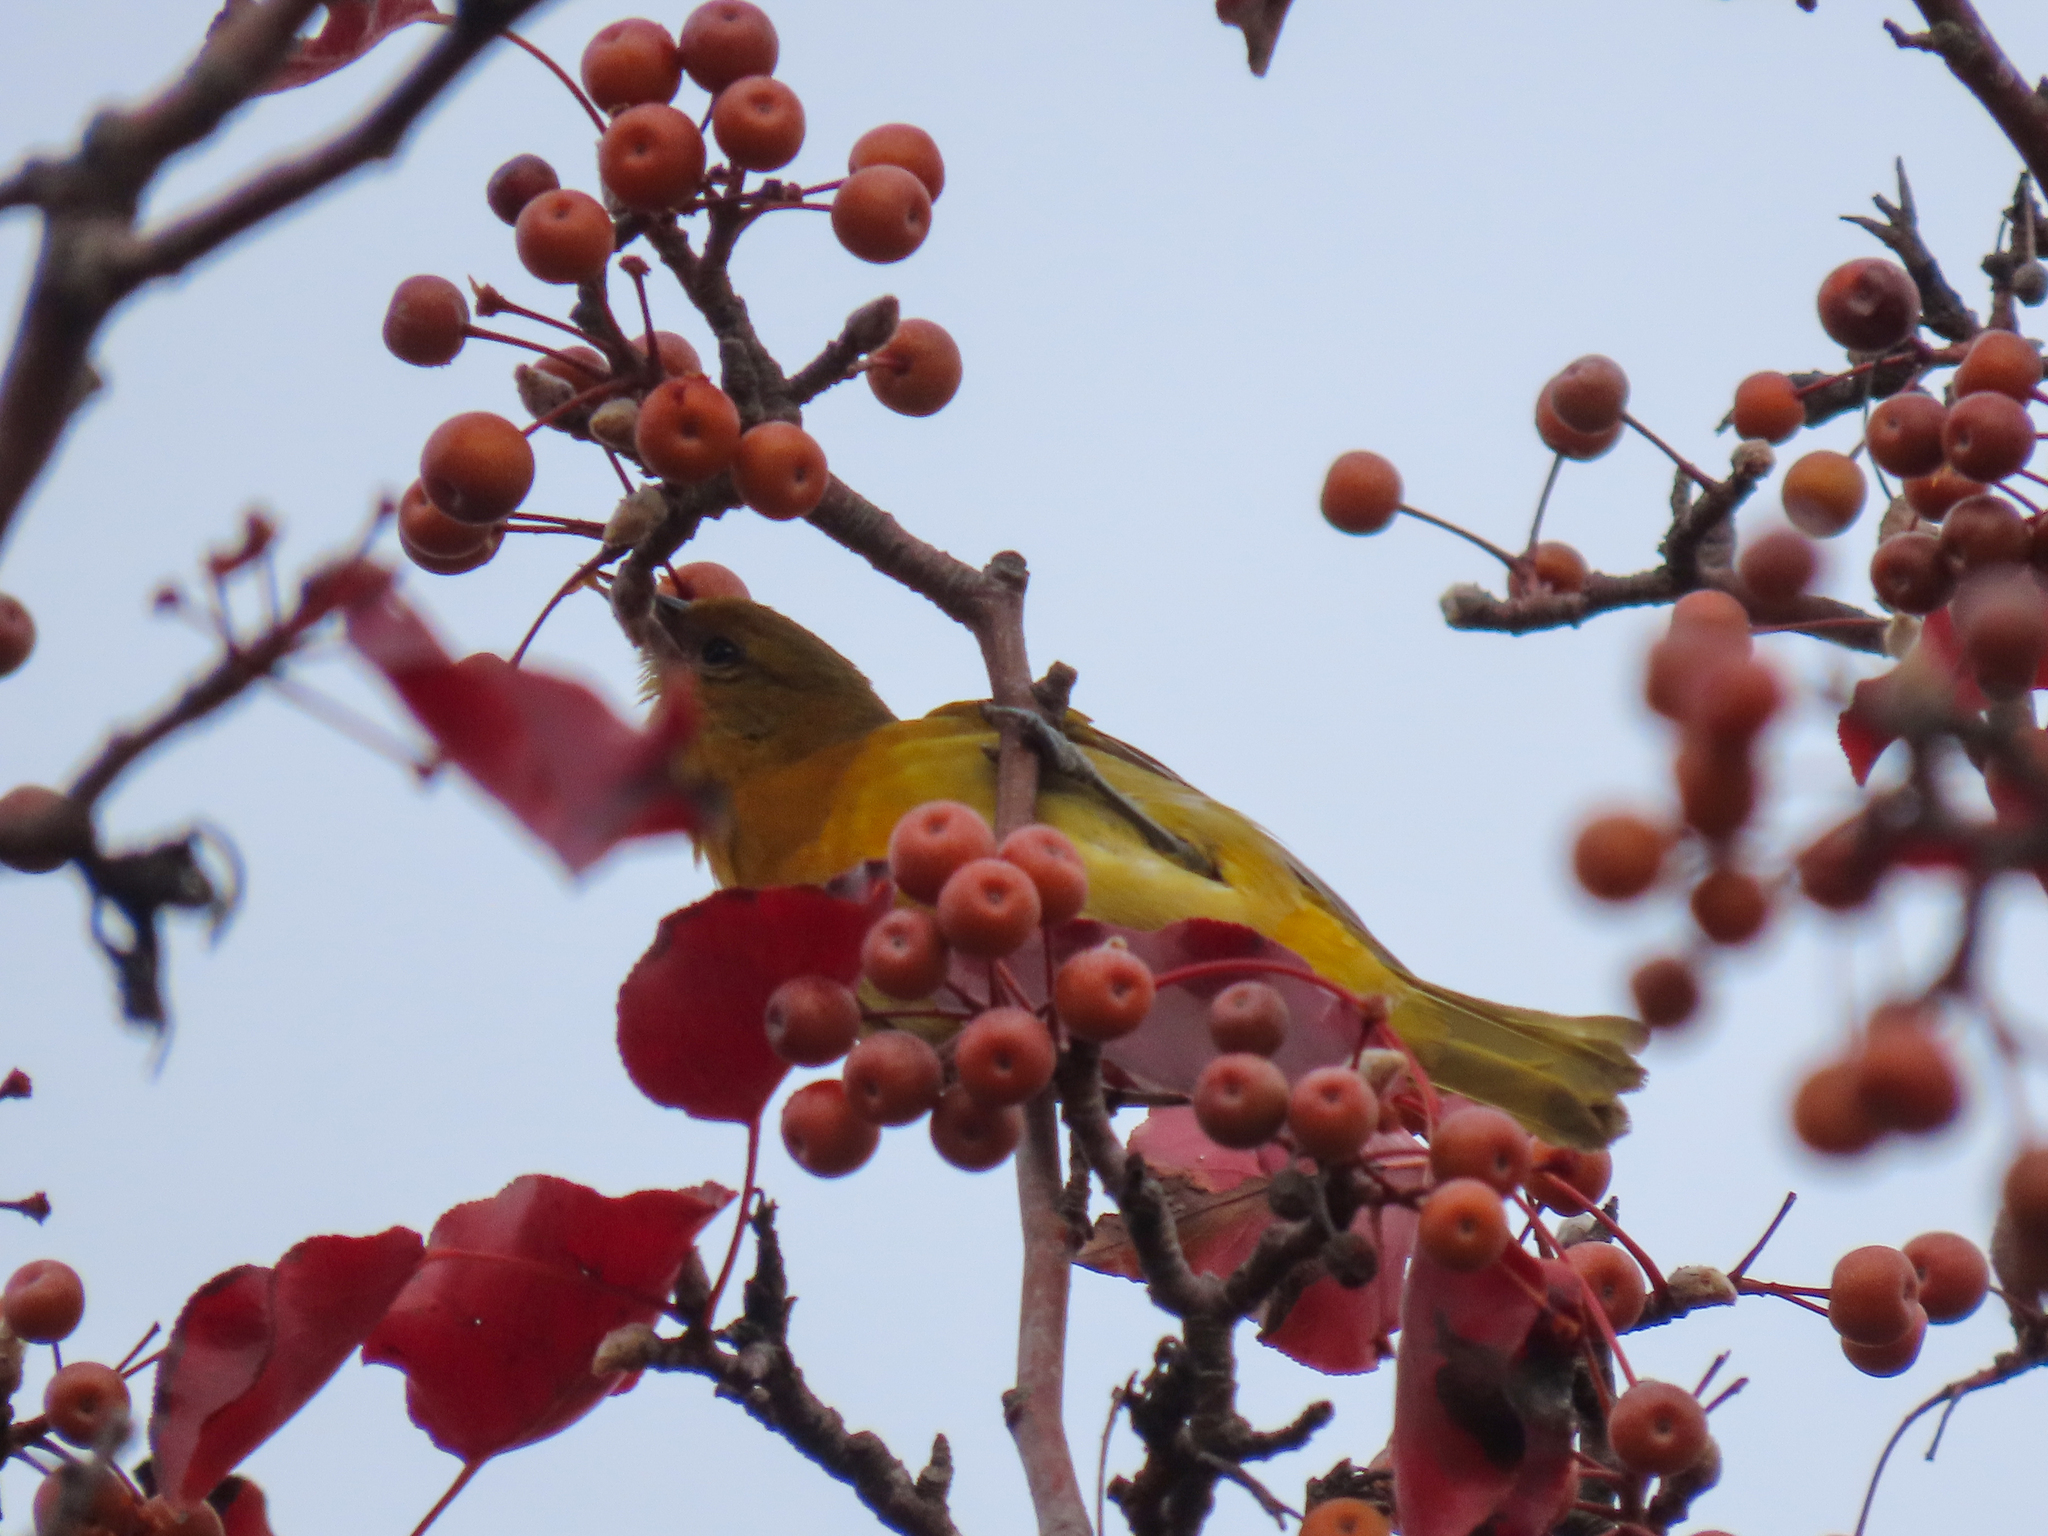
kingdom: Animalia
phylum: Chordata
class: Aves
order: Passeriformes
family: Icteridae
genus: Icterus
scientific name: Icterus galbula
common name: Baltimore oriole
